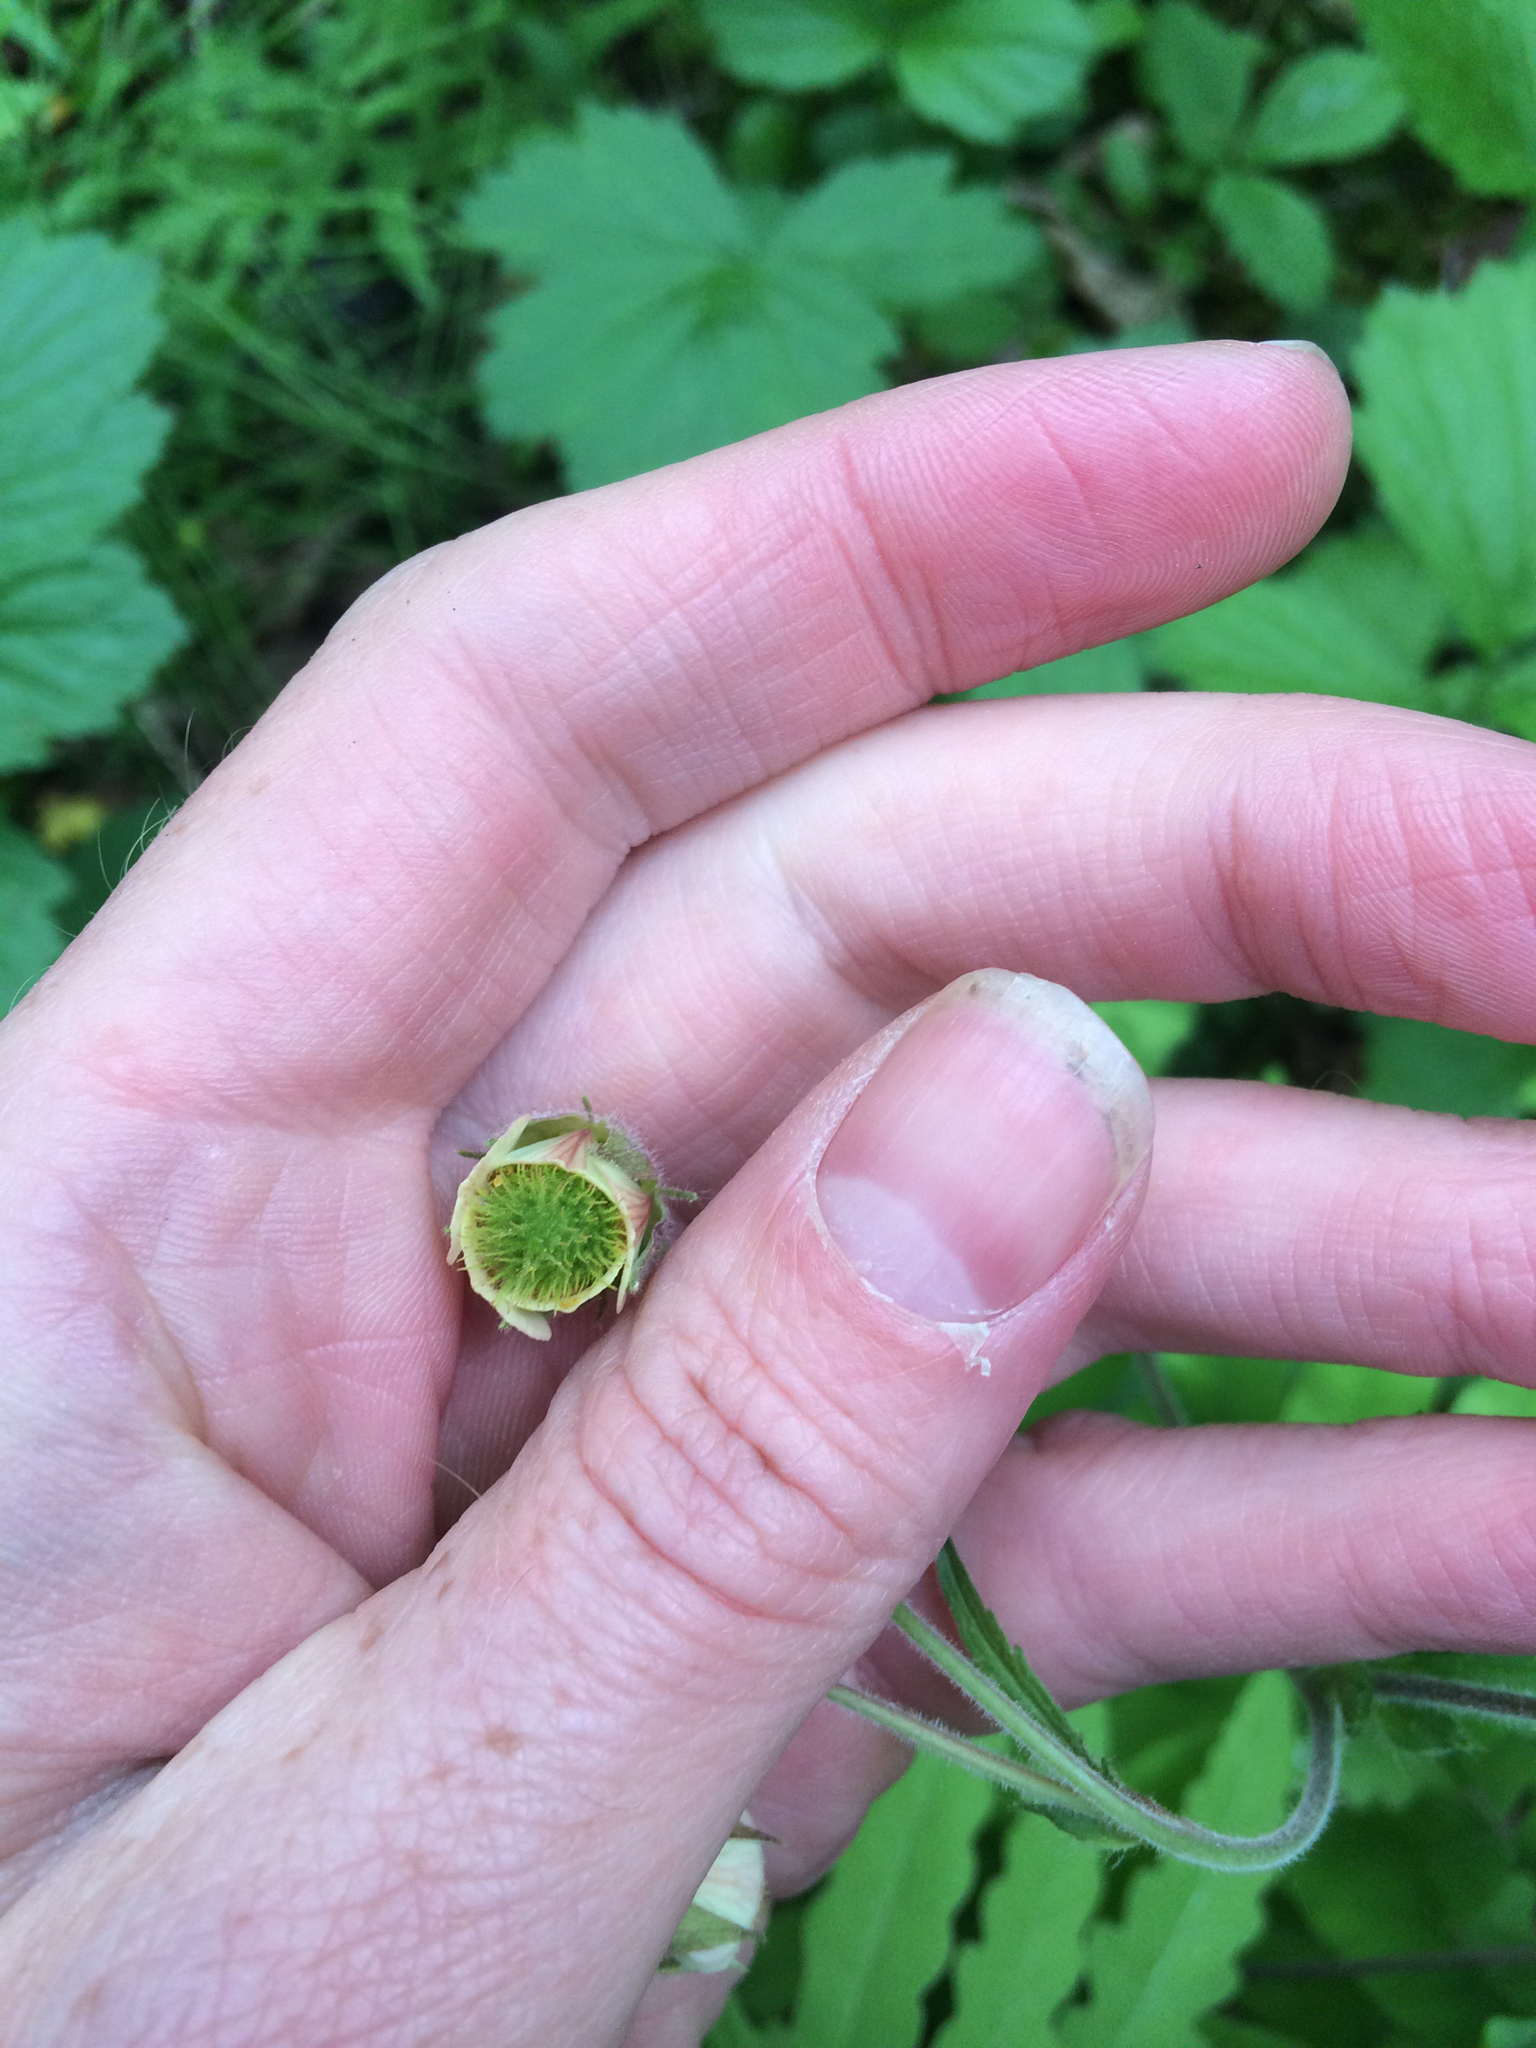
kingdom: Plantae
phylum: Tracheophyta
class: Magnoliopsida
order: Rosales
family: Rosaceae
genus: Geum
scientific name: Geum rivale
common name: Water avens
